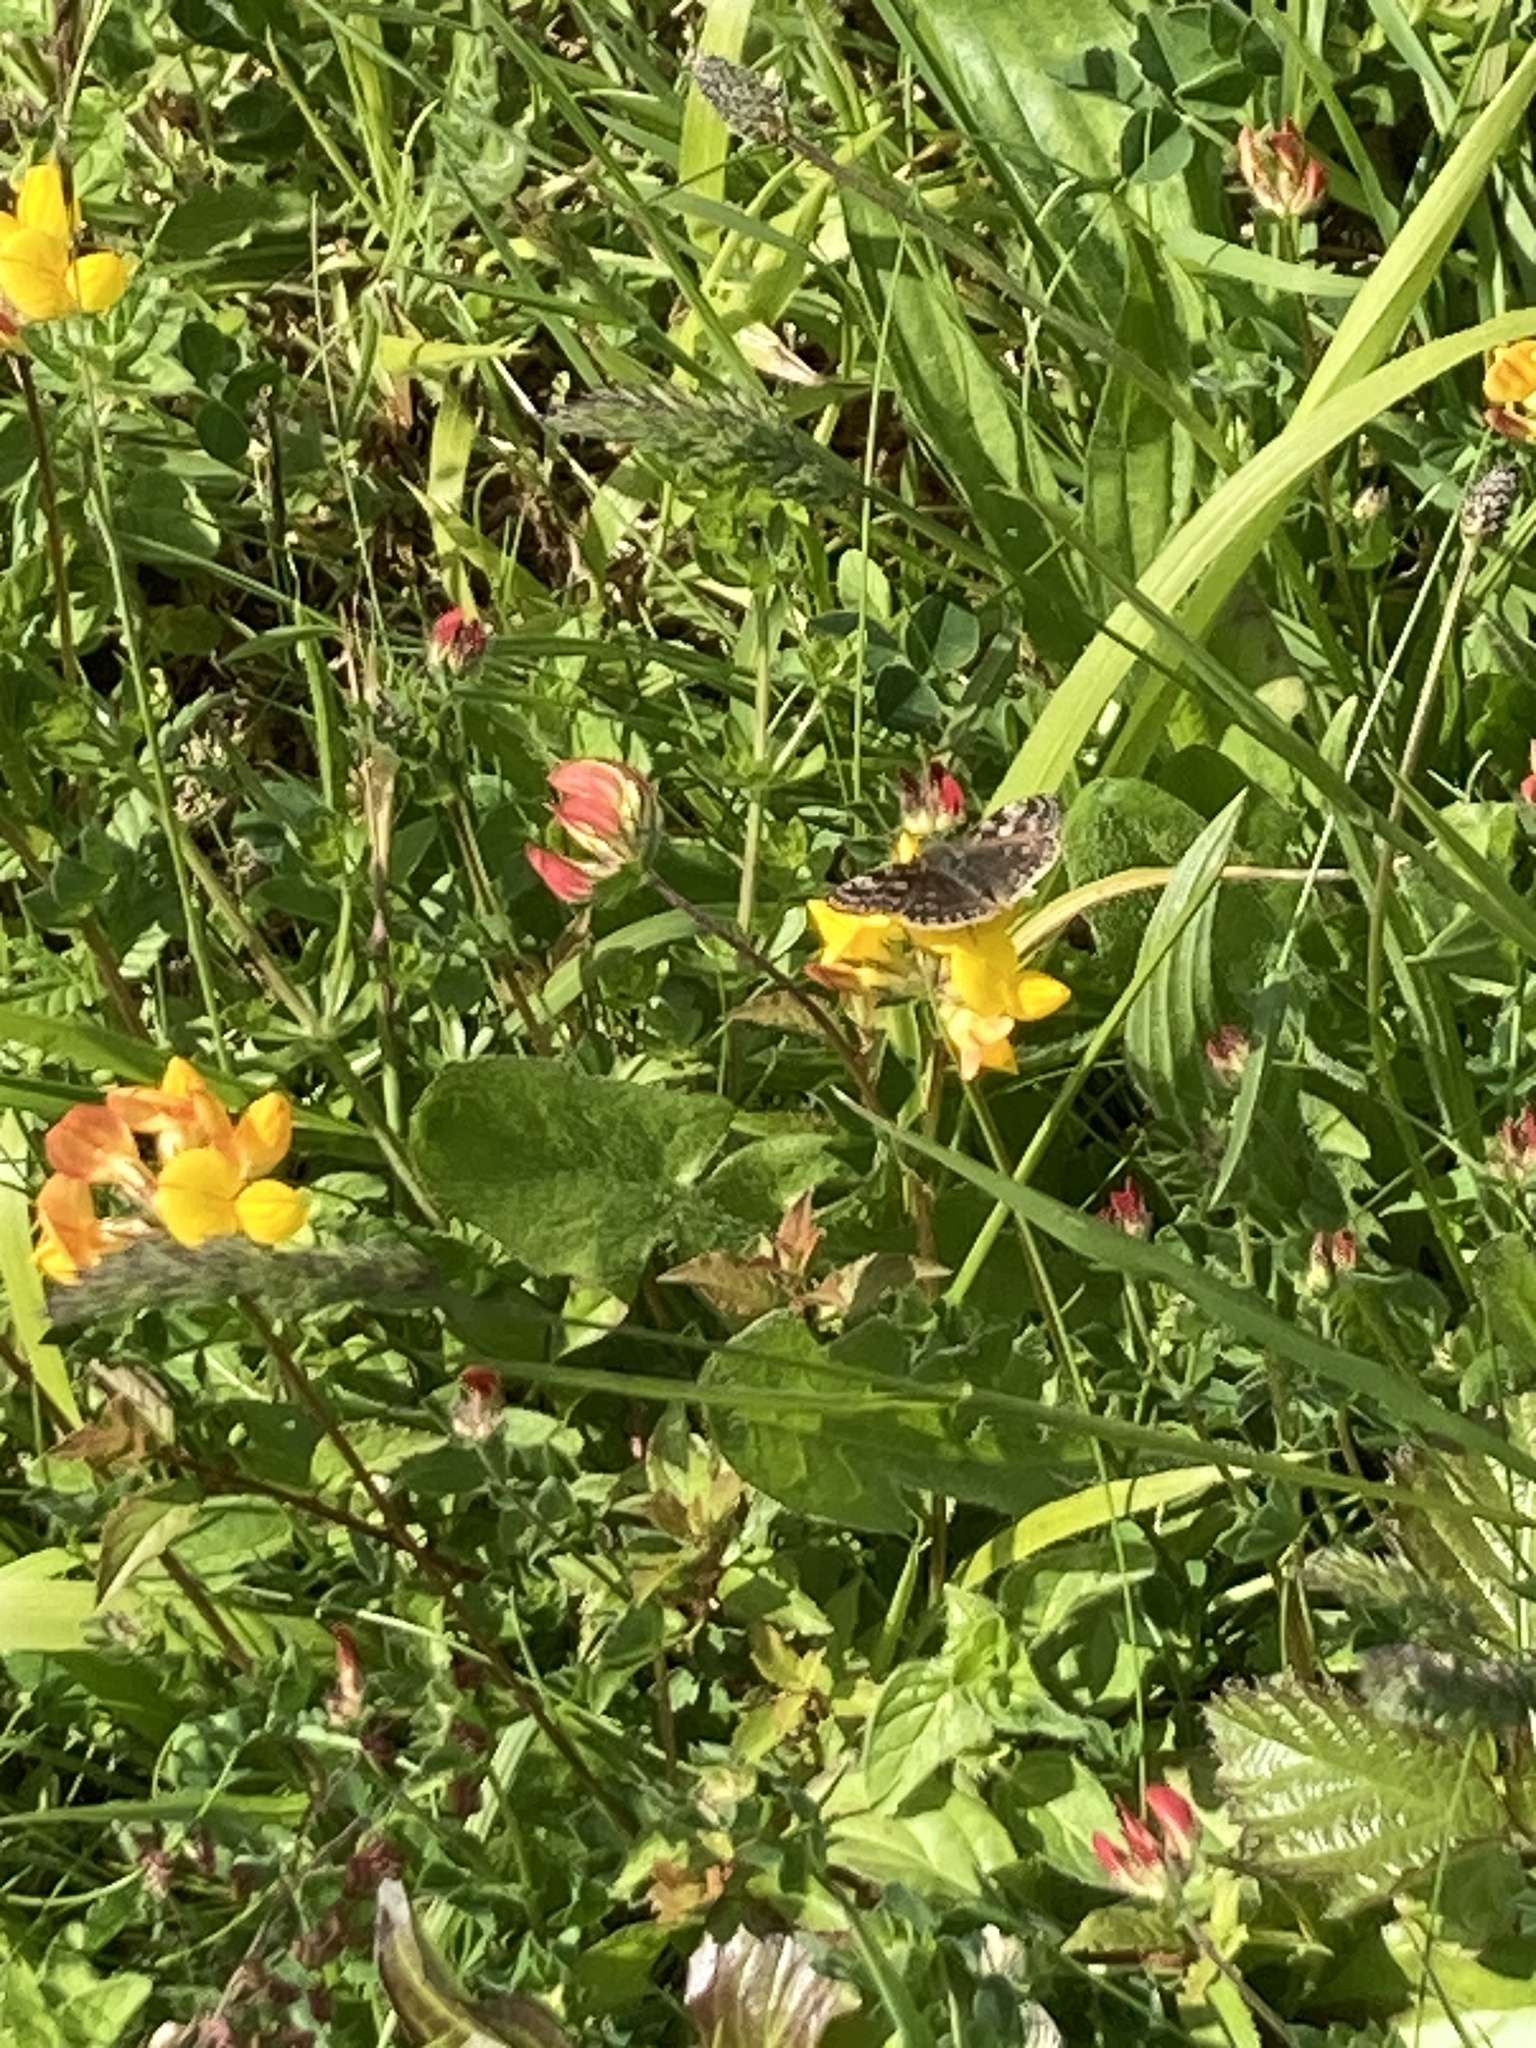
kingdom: Animalia
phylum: Arthropoda
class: Insecta
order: Lepidoptera
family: Hesperiidae
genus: Erynnis
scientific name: Erynnis tages
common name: Dingy skipper
